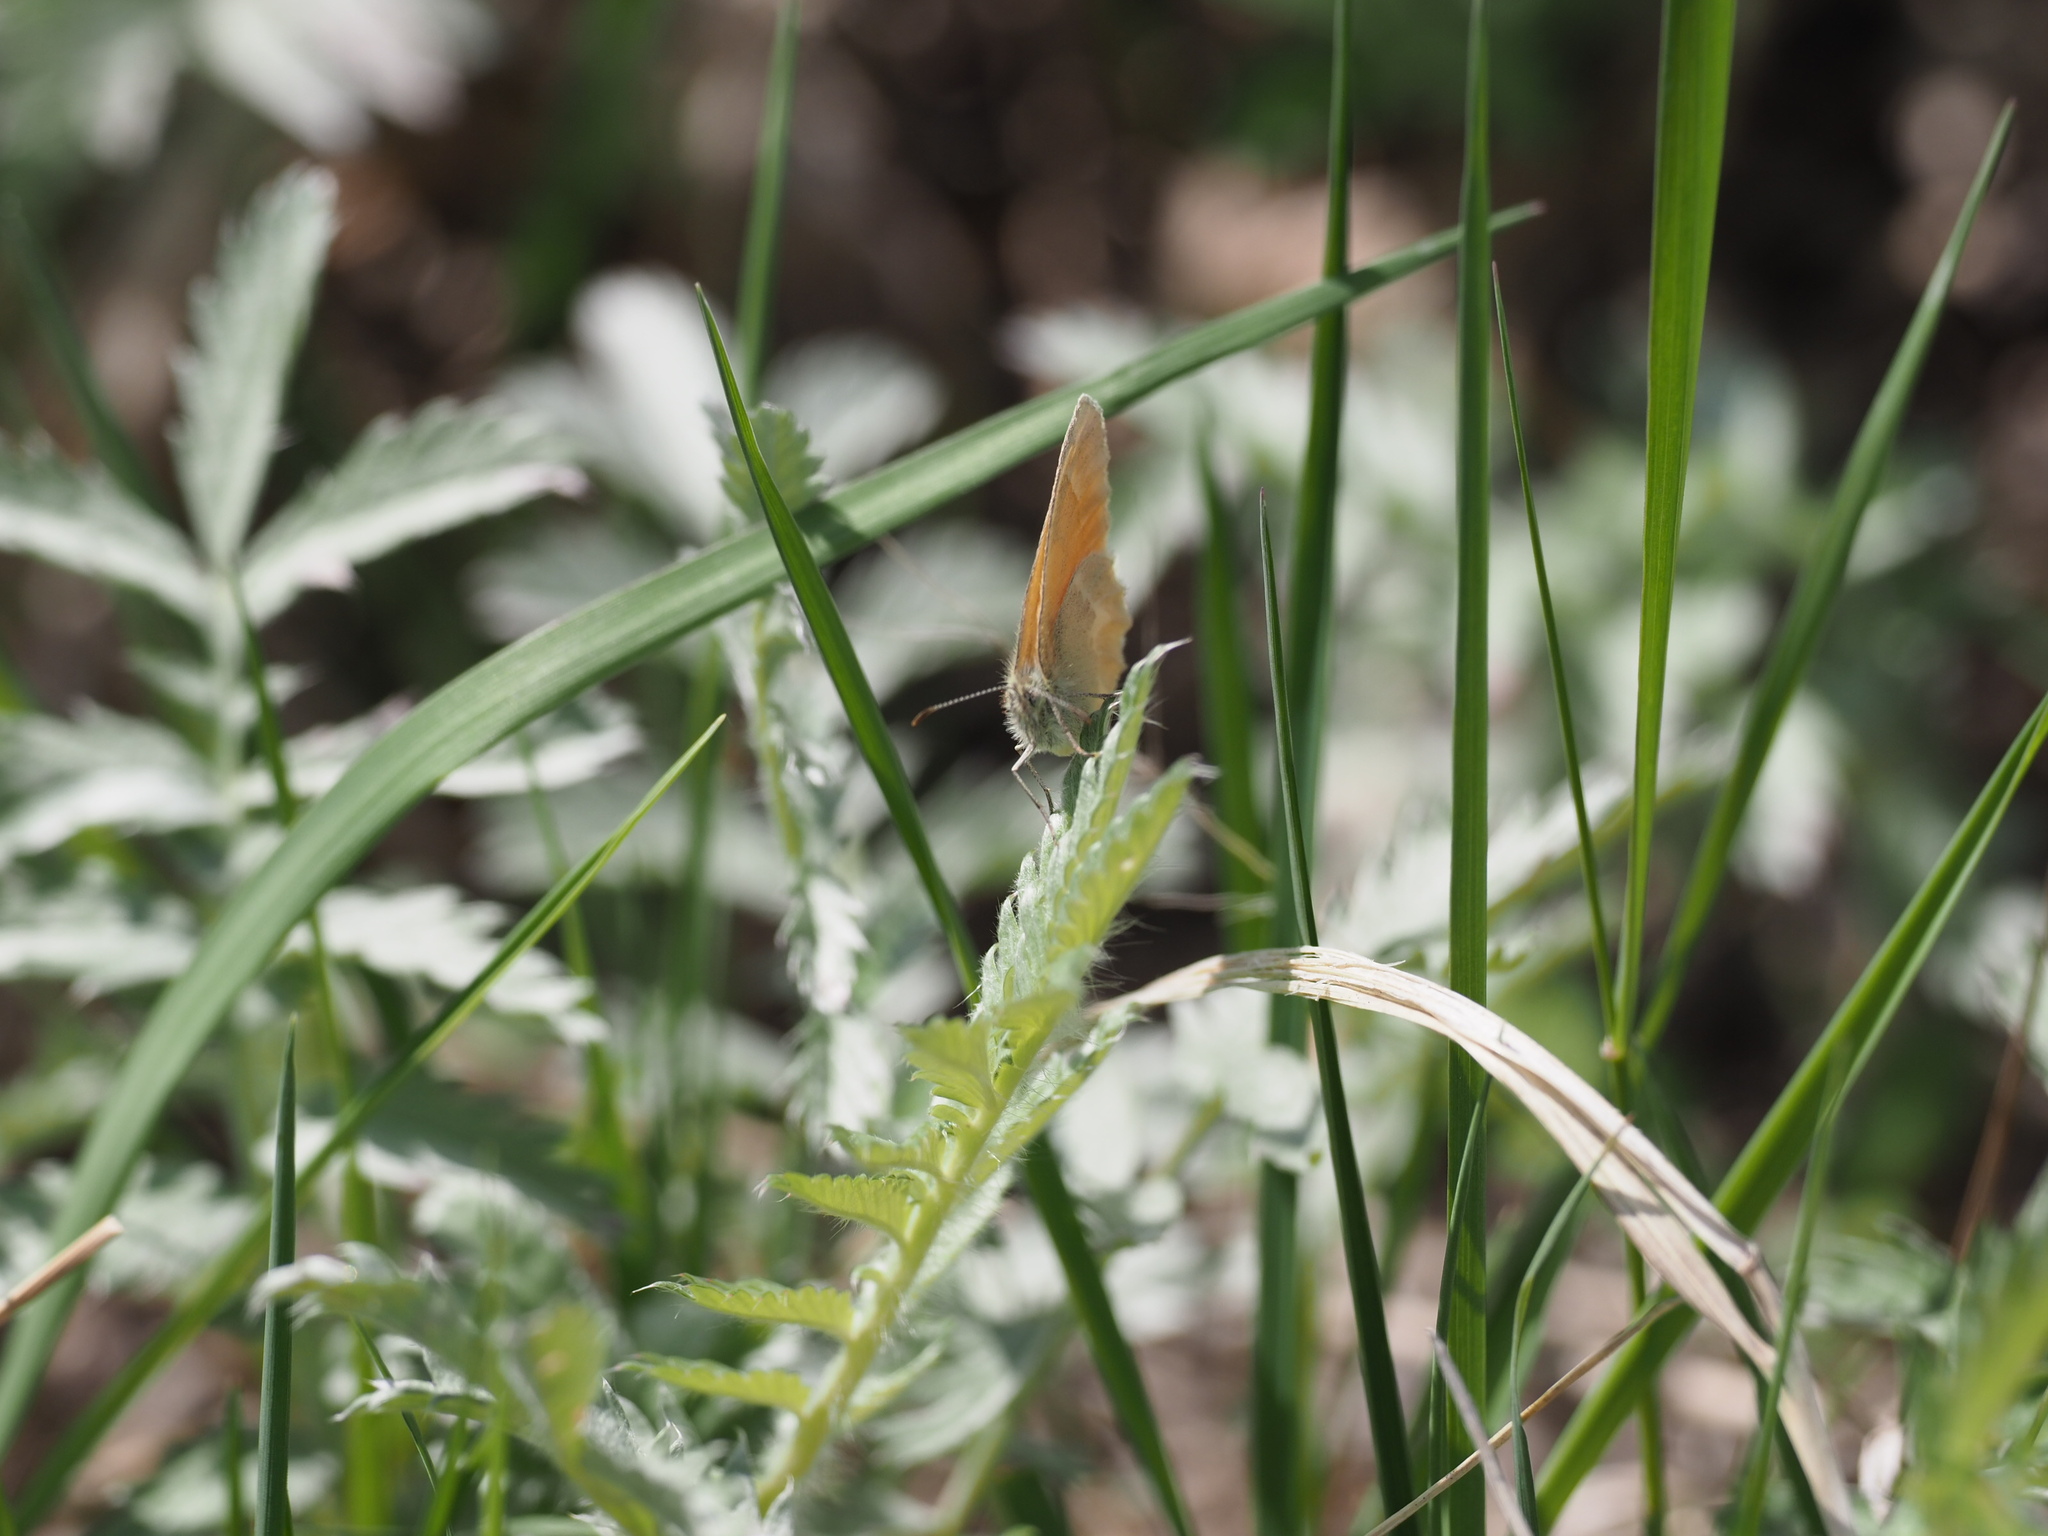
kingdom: Animalia
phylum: Arthropoda
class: Insecta
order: Lepidoptera
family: Nymphalidae
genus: Coenonympha
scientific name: Coenonympha california
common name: Common ringlet
